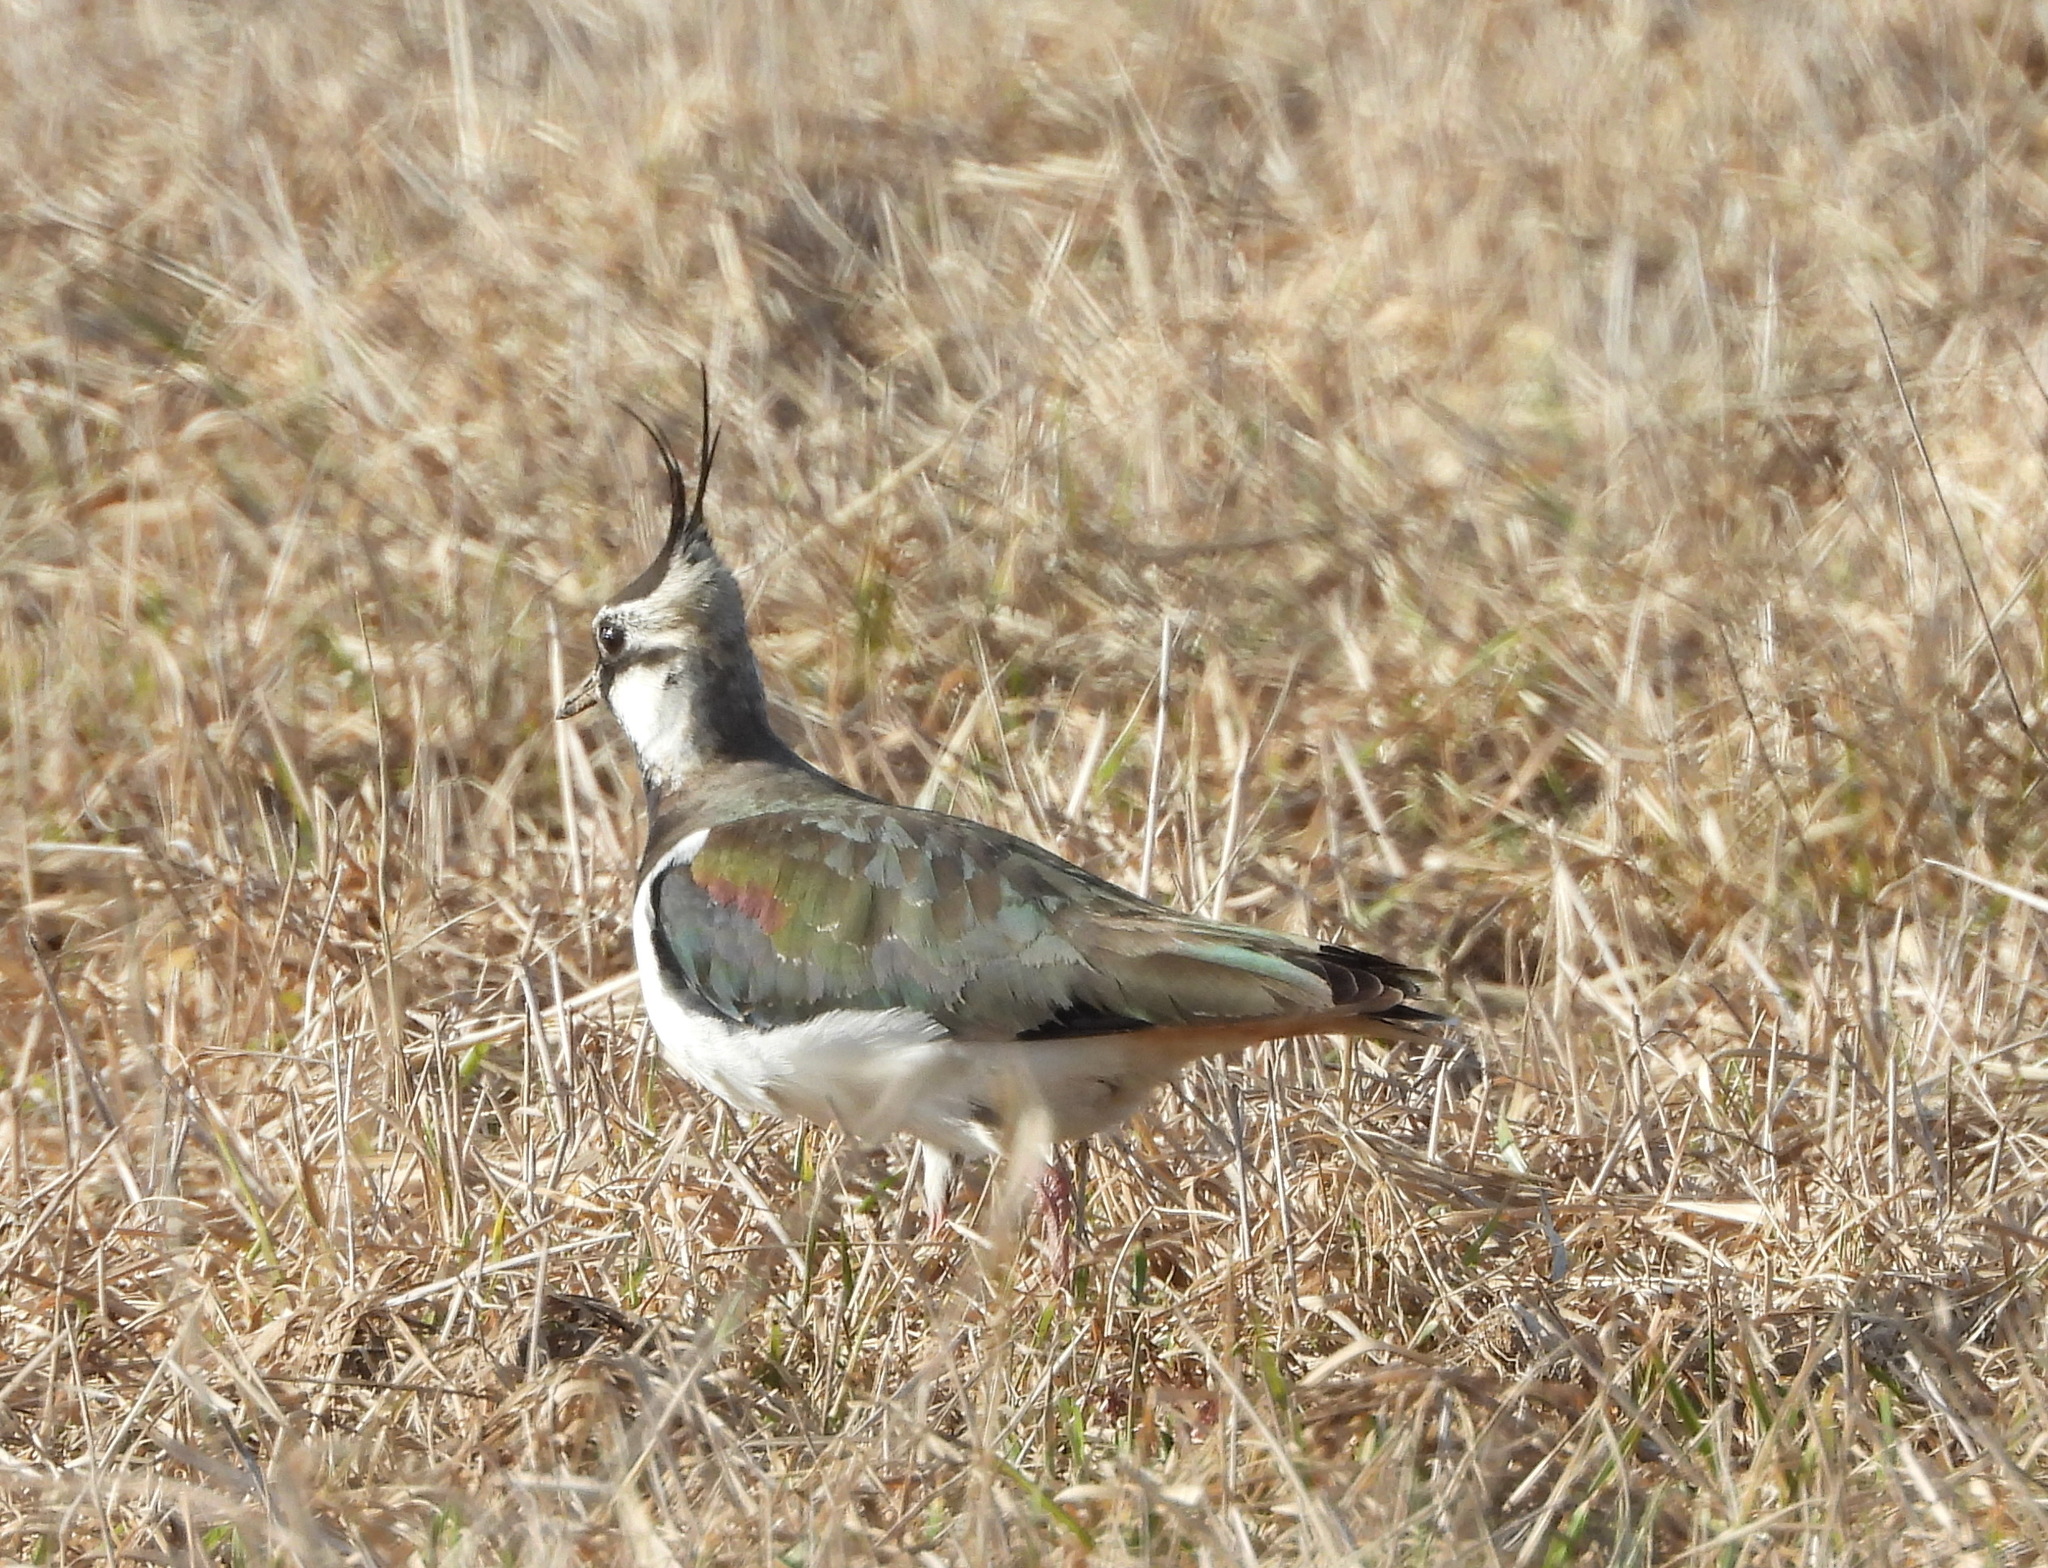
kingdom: Animalia
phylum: Chordata
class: Aves
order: Charadriiformes
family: Charadriidae
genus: Vanellus
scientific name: Vanellus vanellus
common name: Northern lapwing
